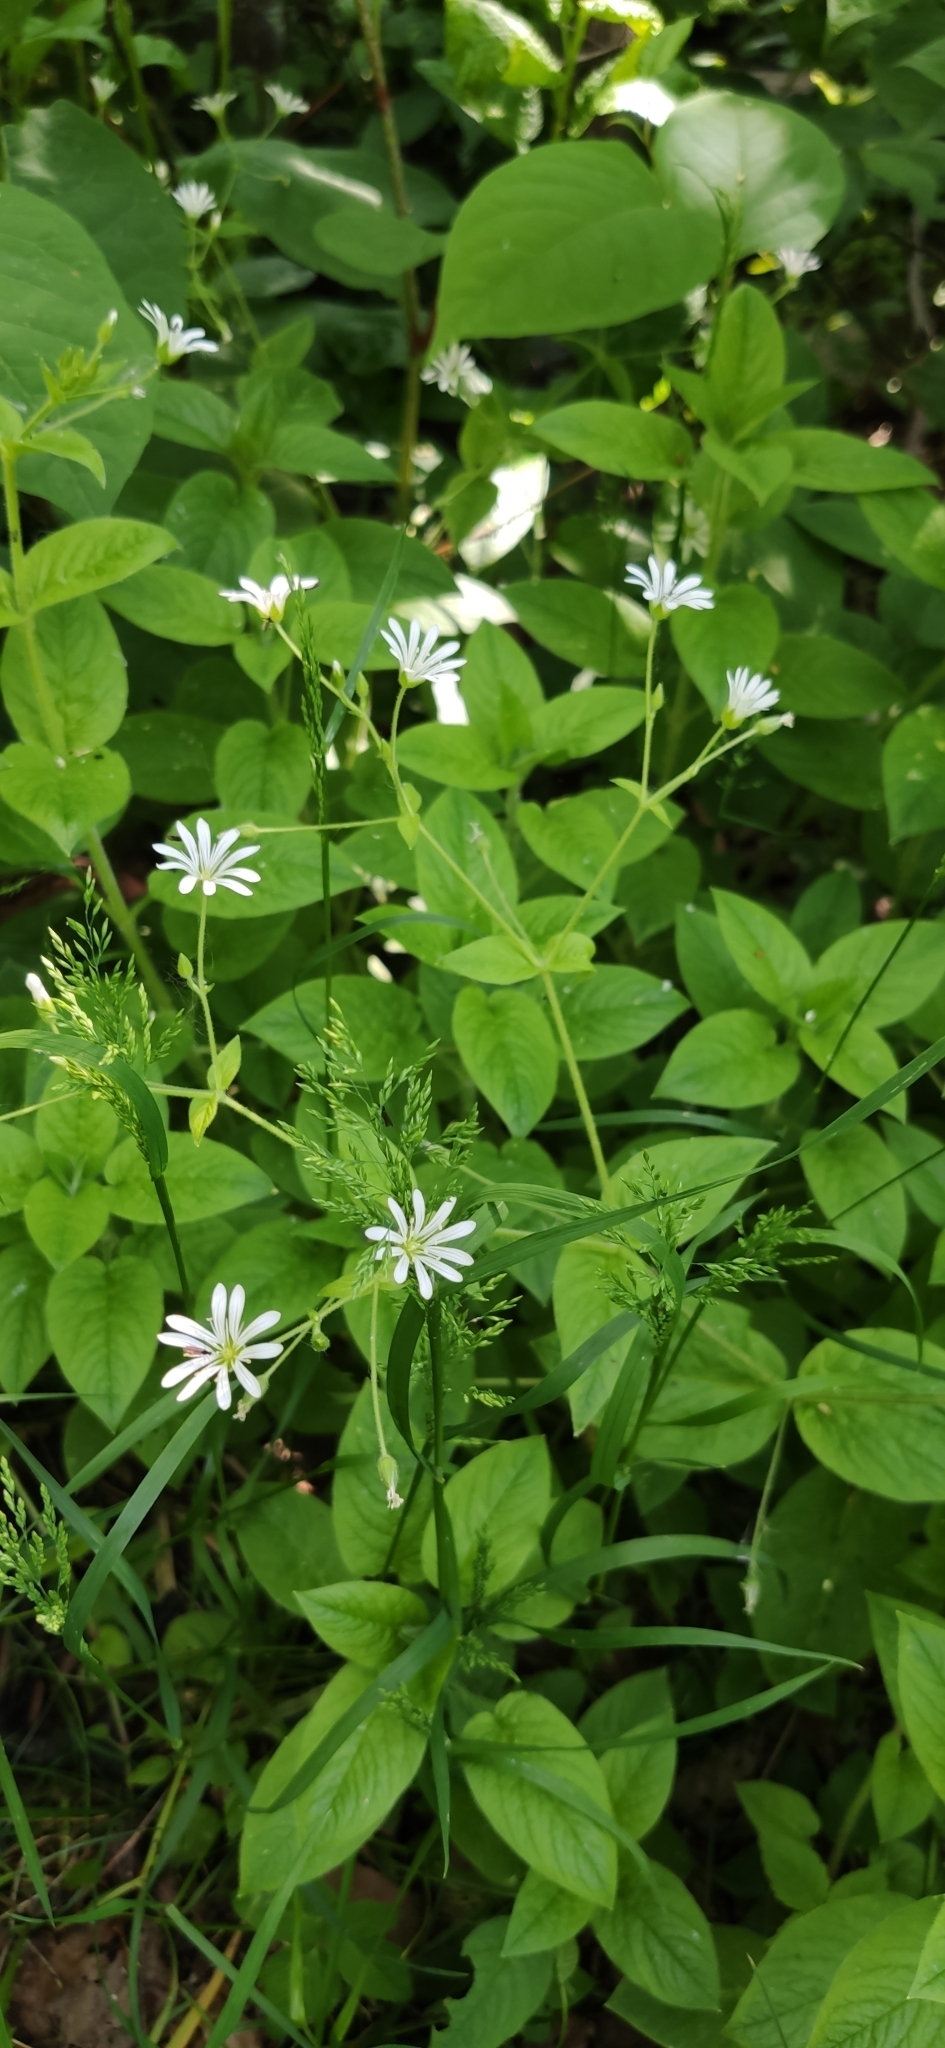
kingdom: Plantae
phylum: Tracheophyta
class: Magnoliopsida
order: Caryophyllales
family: Caryophyllaceae
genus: Stellaria
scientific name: Stellaria nemorum
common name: Wood stitchwort
